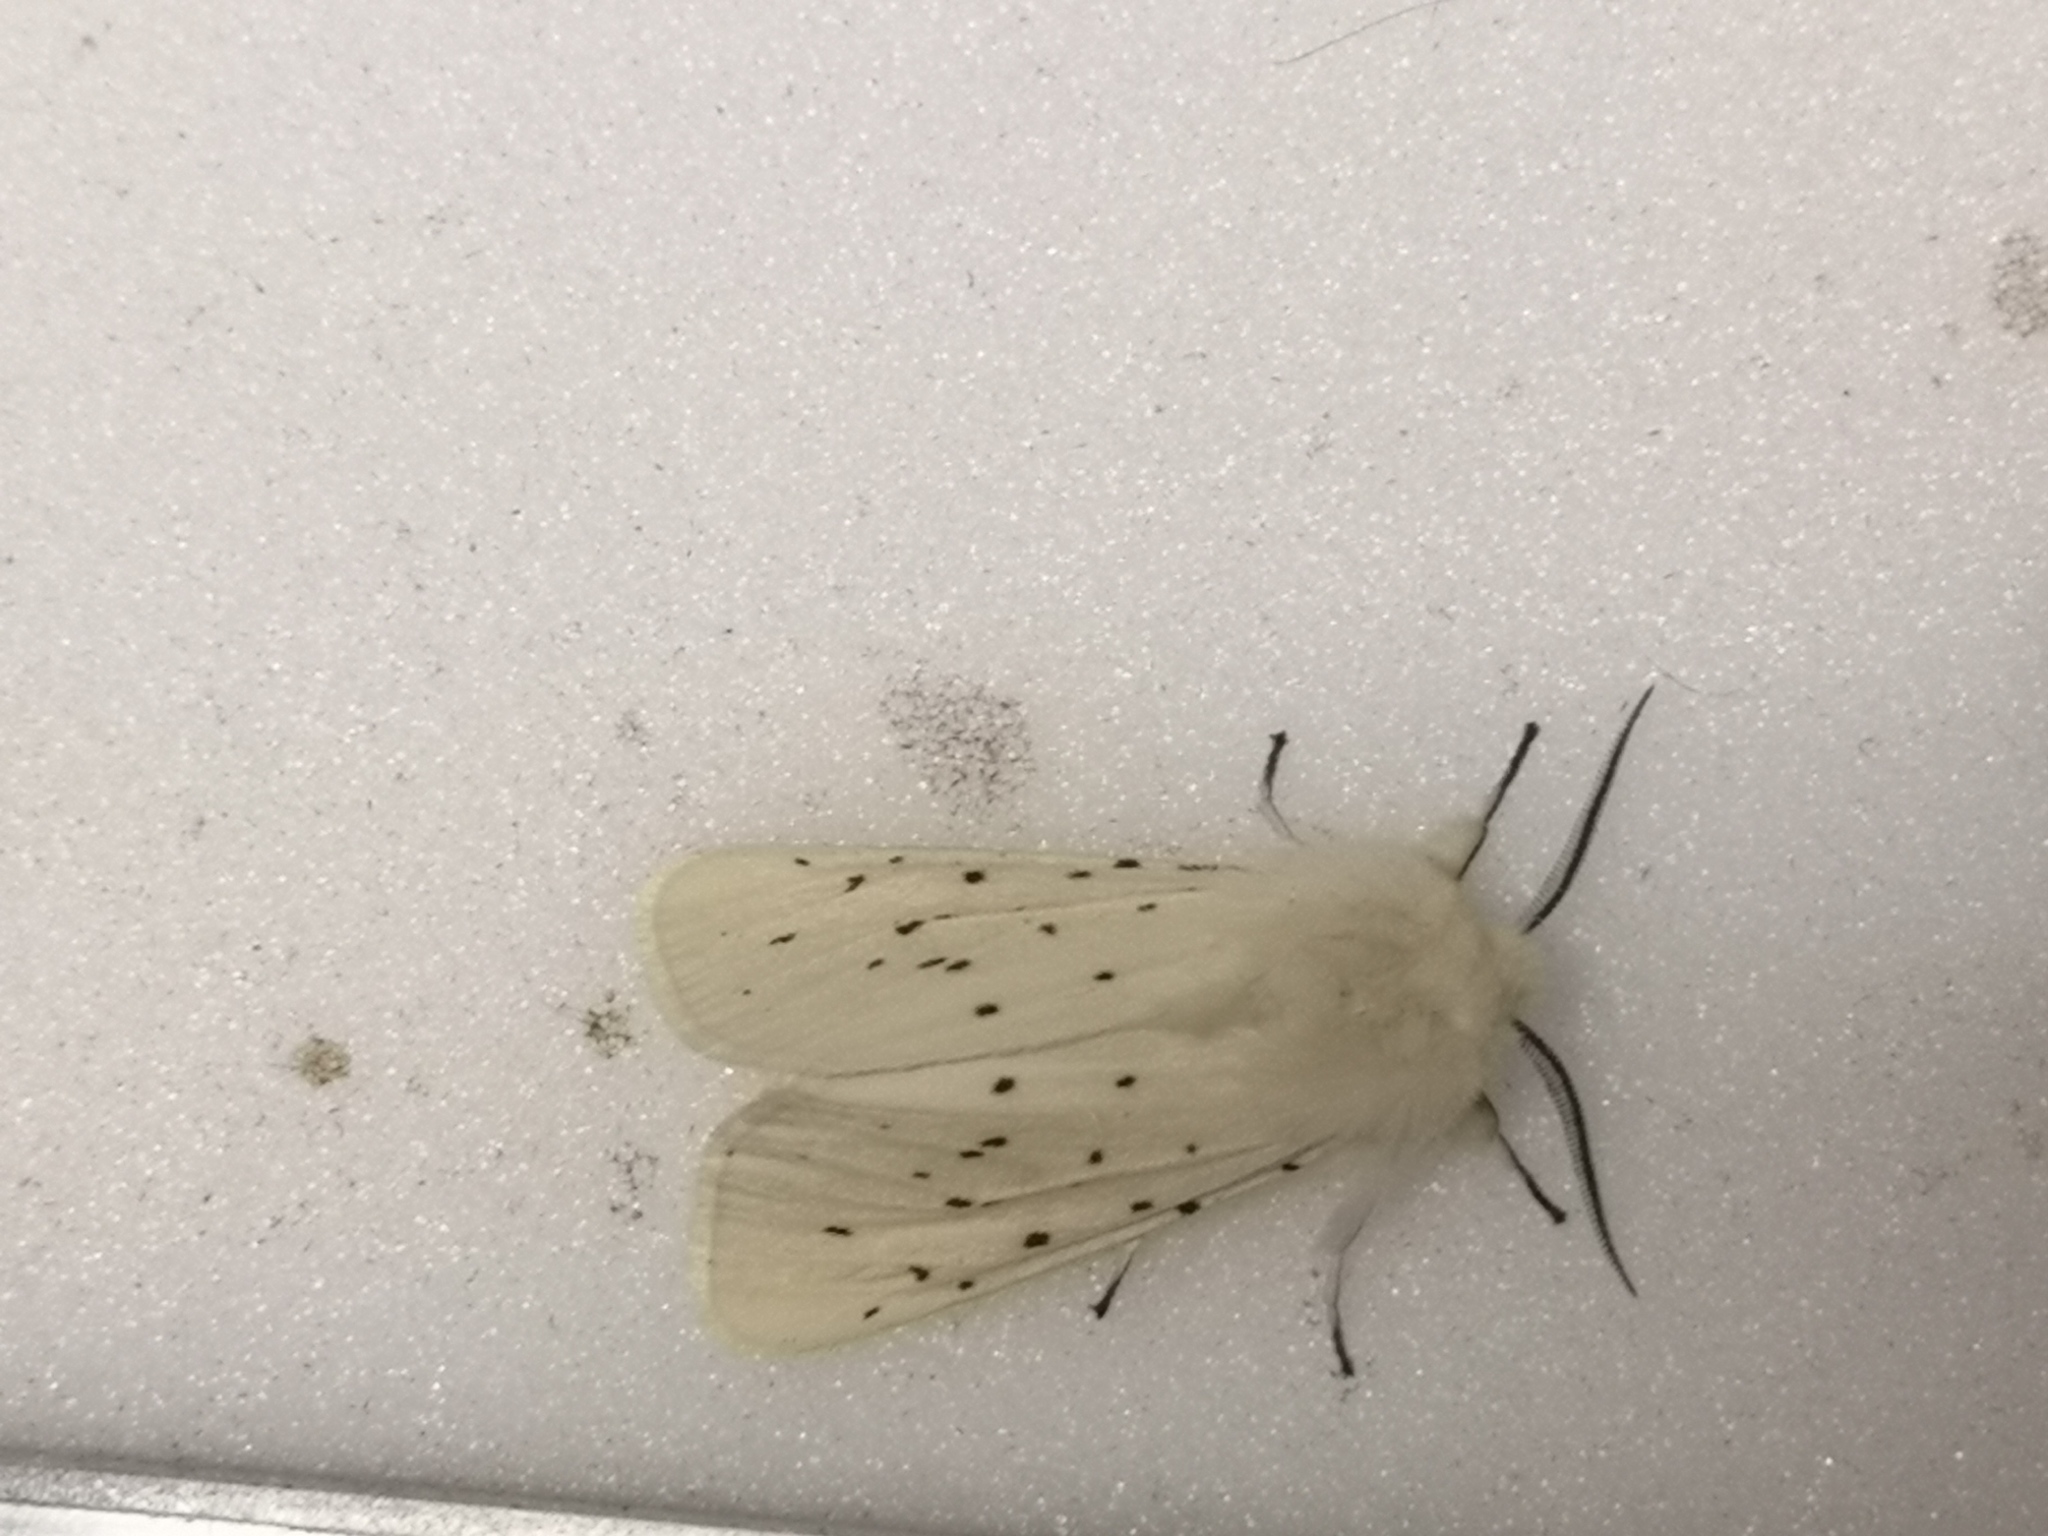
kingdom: Animalia
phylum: Arthropoda
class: Insecta
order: Lepidoptera
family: Erebidae
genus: Spilosoma
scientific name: Spilosoma lubricipeda
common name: White ermine
